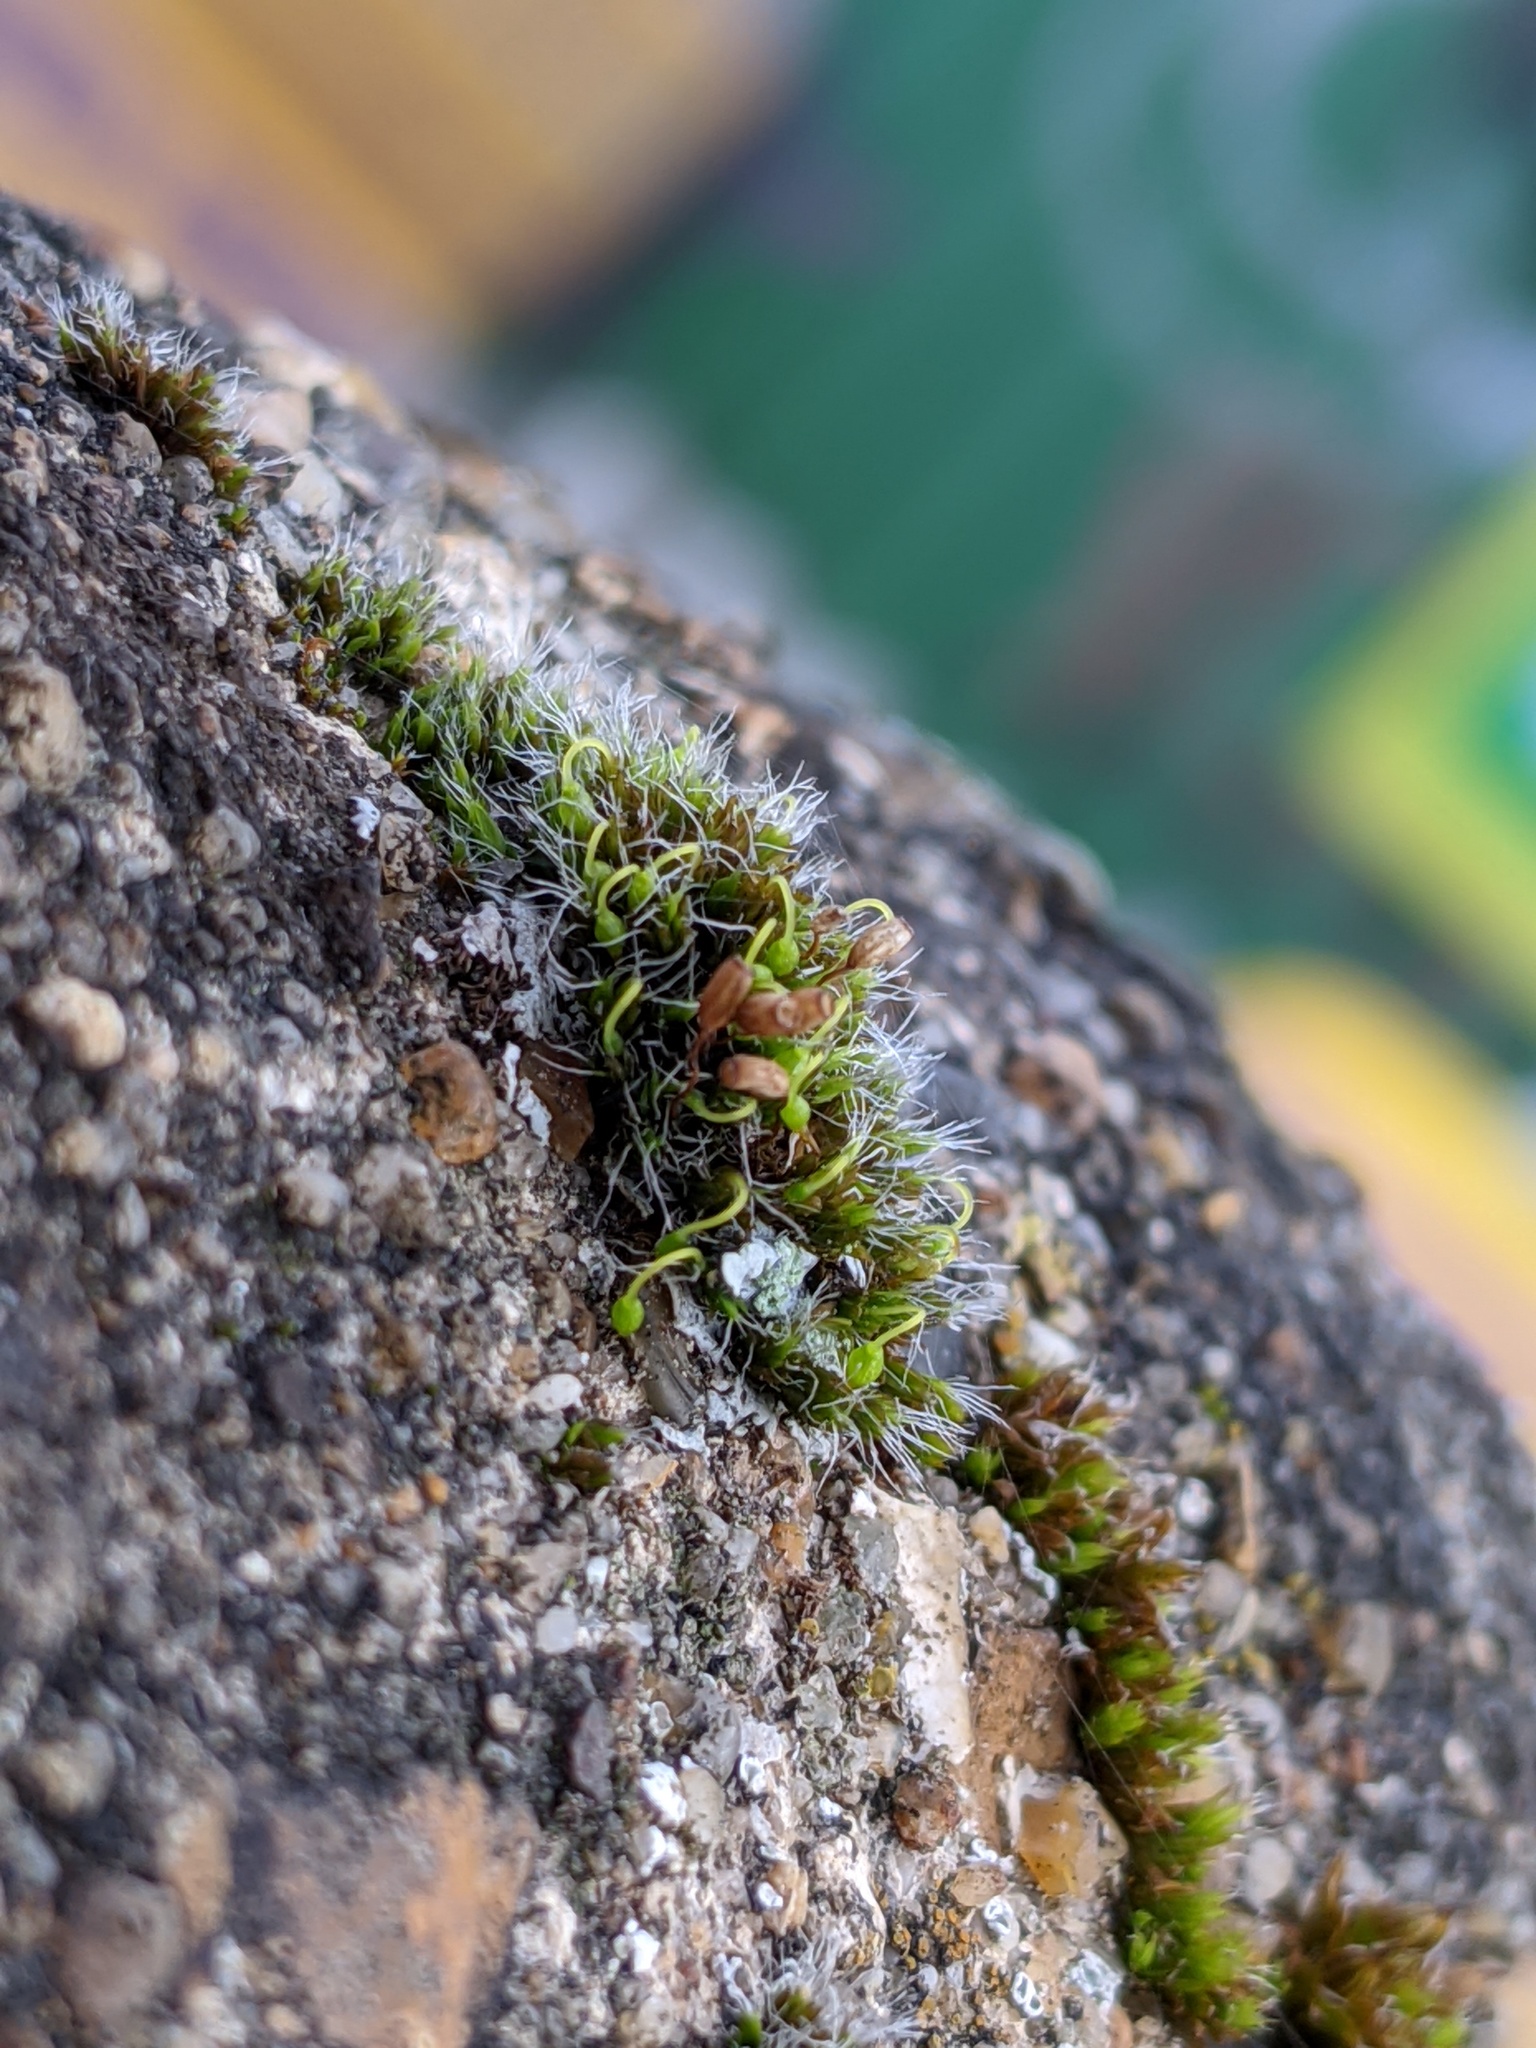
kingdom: Plantae
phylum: Bryophyta
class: Bryopsida
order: Grimmiales
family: Grimmiaceae
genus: Grimmia
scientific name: Grimmia pulvinata
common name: Grey-cushioned grimmia
